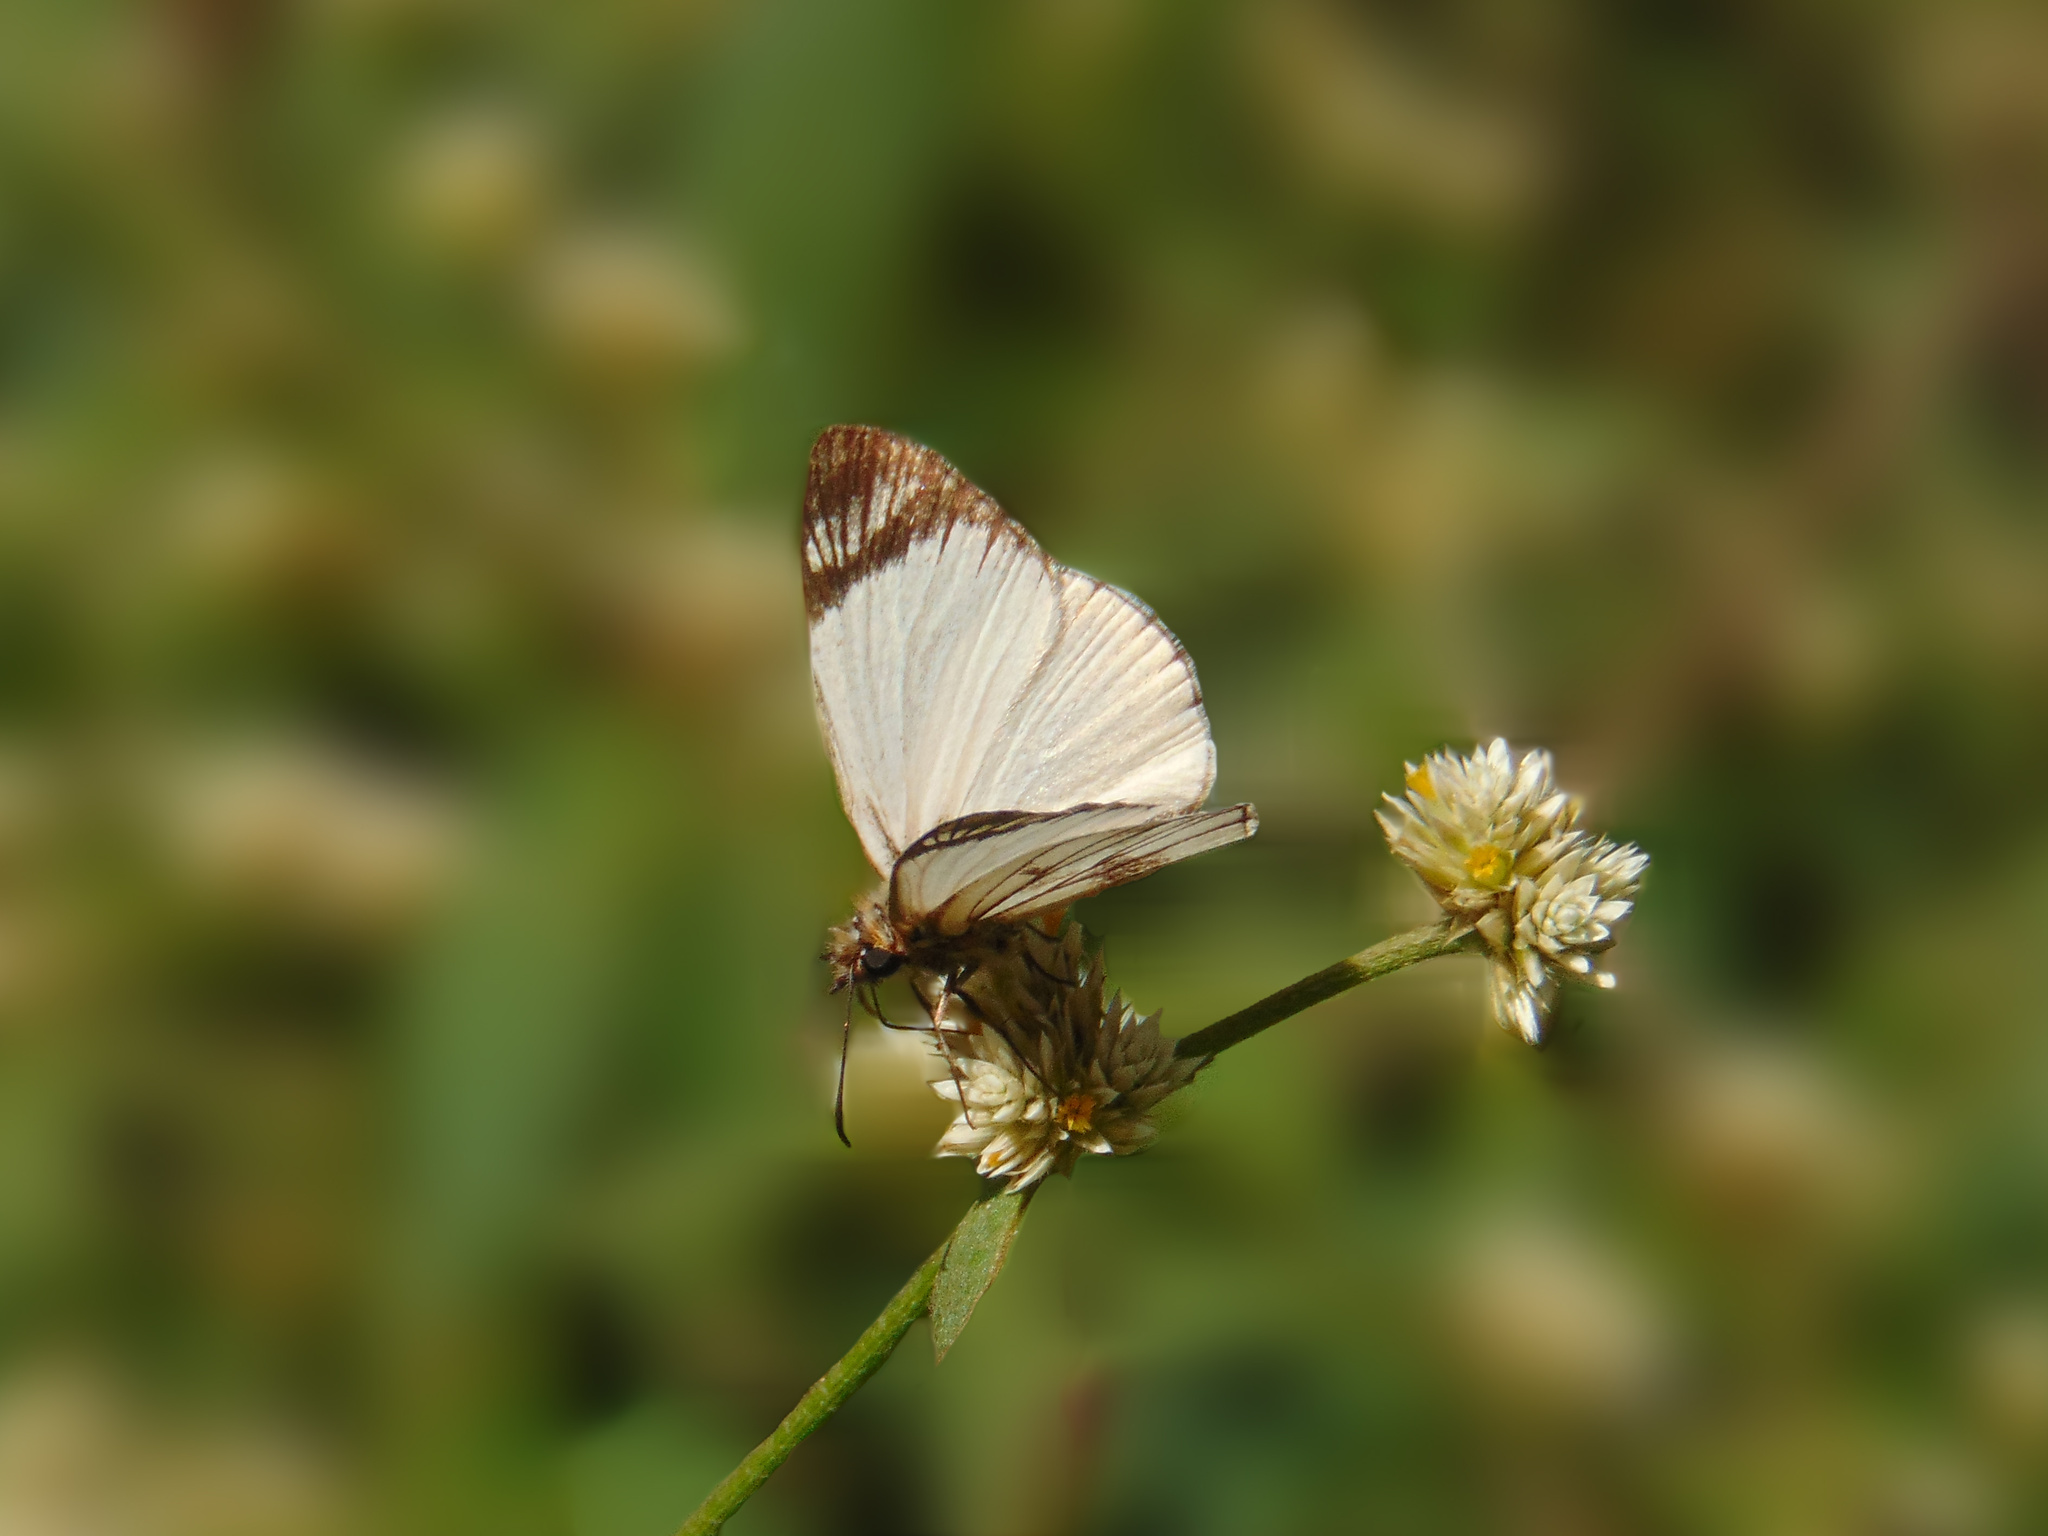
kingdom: Animalia
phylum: Arthropoda
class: Insecta
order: Lepidoptera
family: Hesperiidae
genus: Heliopetes
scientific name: Heliopetes alana
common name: Alana white-skipper
